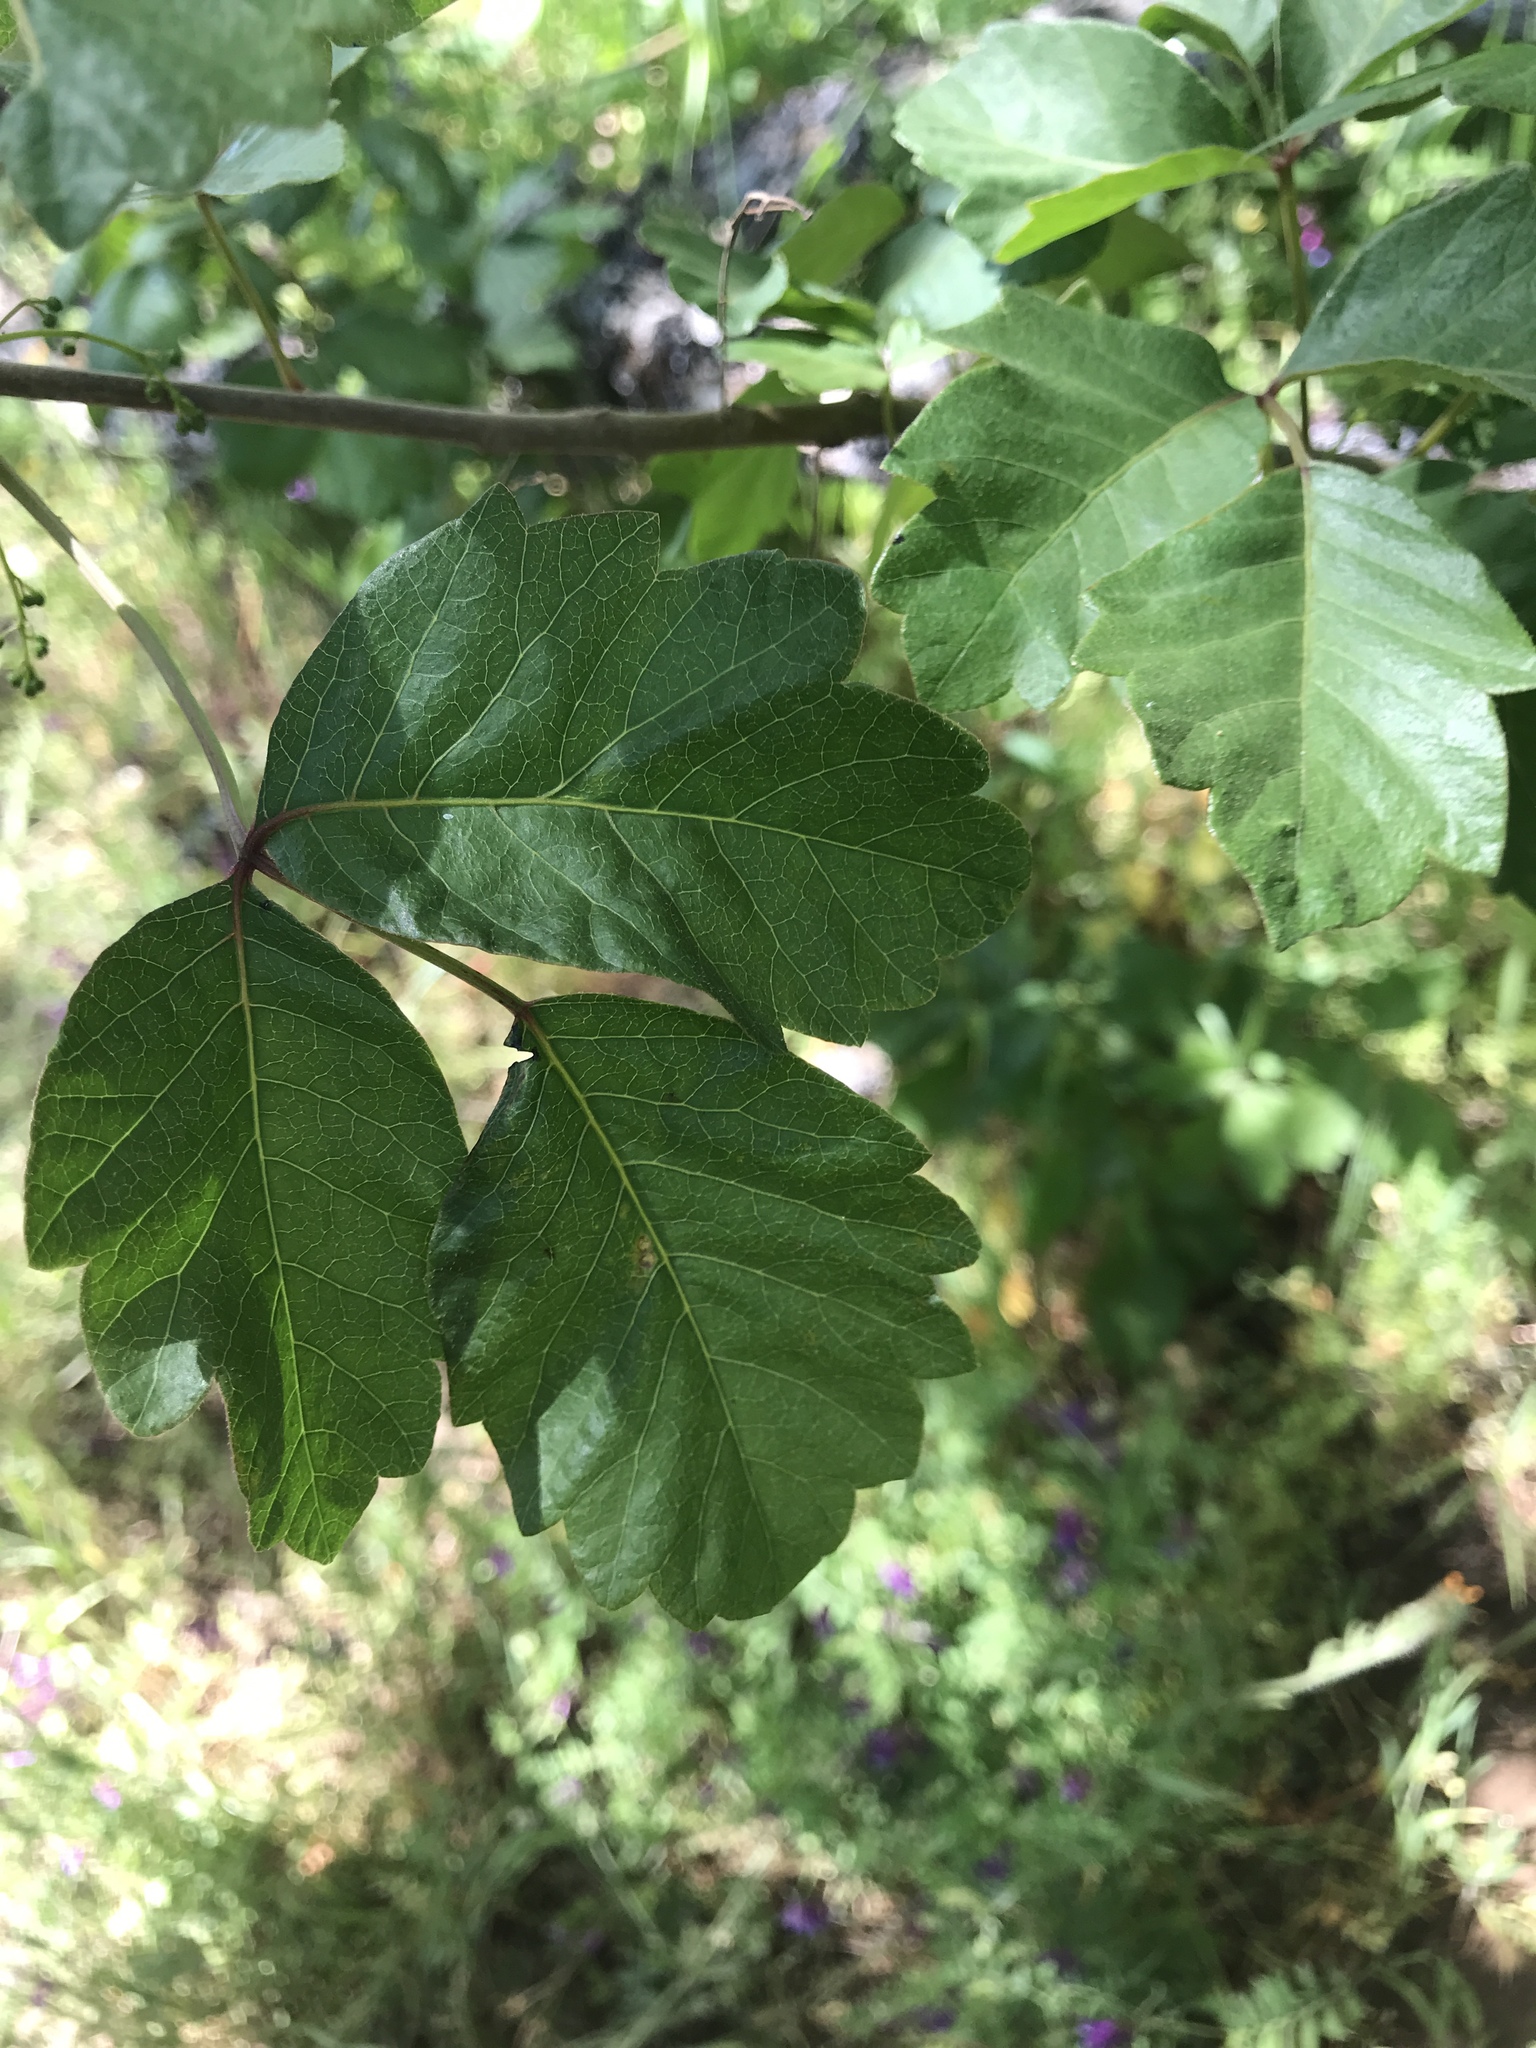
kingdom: Plantae
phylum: Tracheophyta
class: Magnoliopsida
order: Sapindales
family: Anacardiaceae
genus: Toxicodendron
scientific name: Toxicodendron diversilobum
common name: Pacific poison-oak
